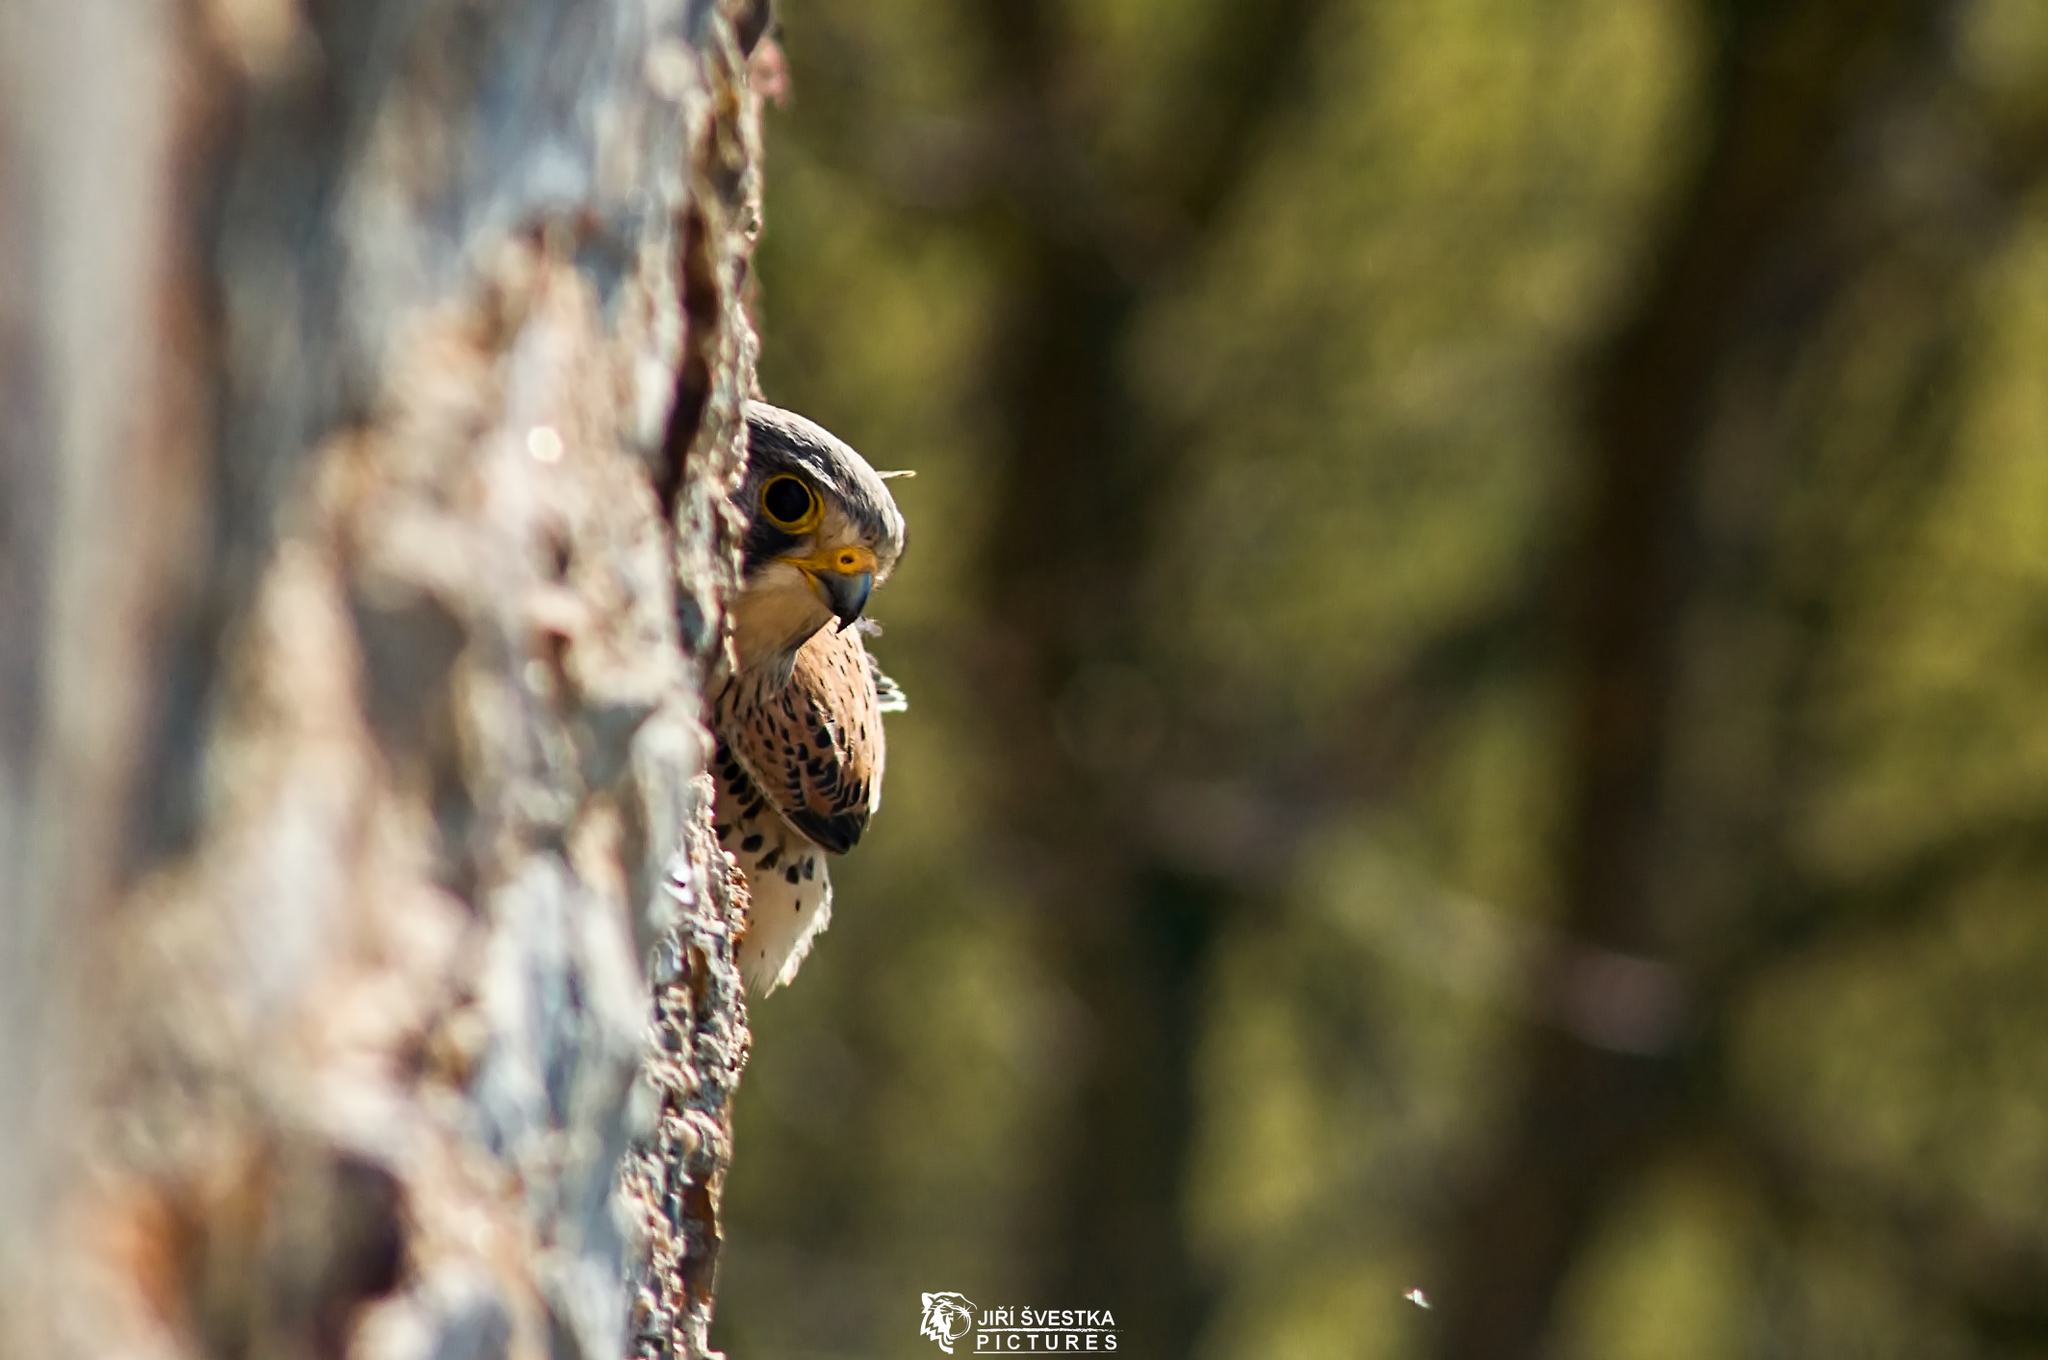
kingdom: Animalia
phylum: Chordata
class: Aves
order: Falconiformes
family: Falconidae
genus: Falco
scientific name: Falco tinnunculus
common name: Common kestrel
